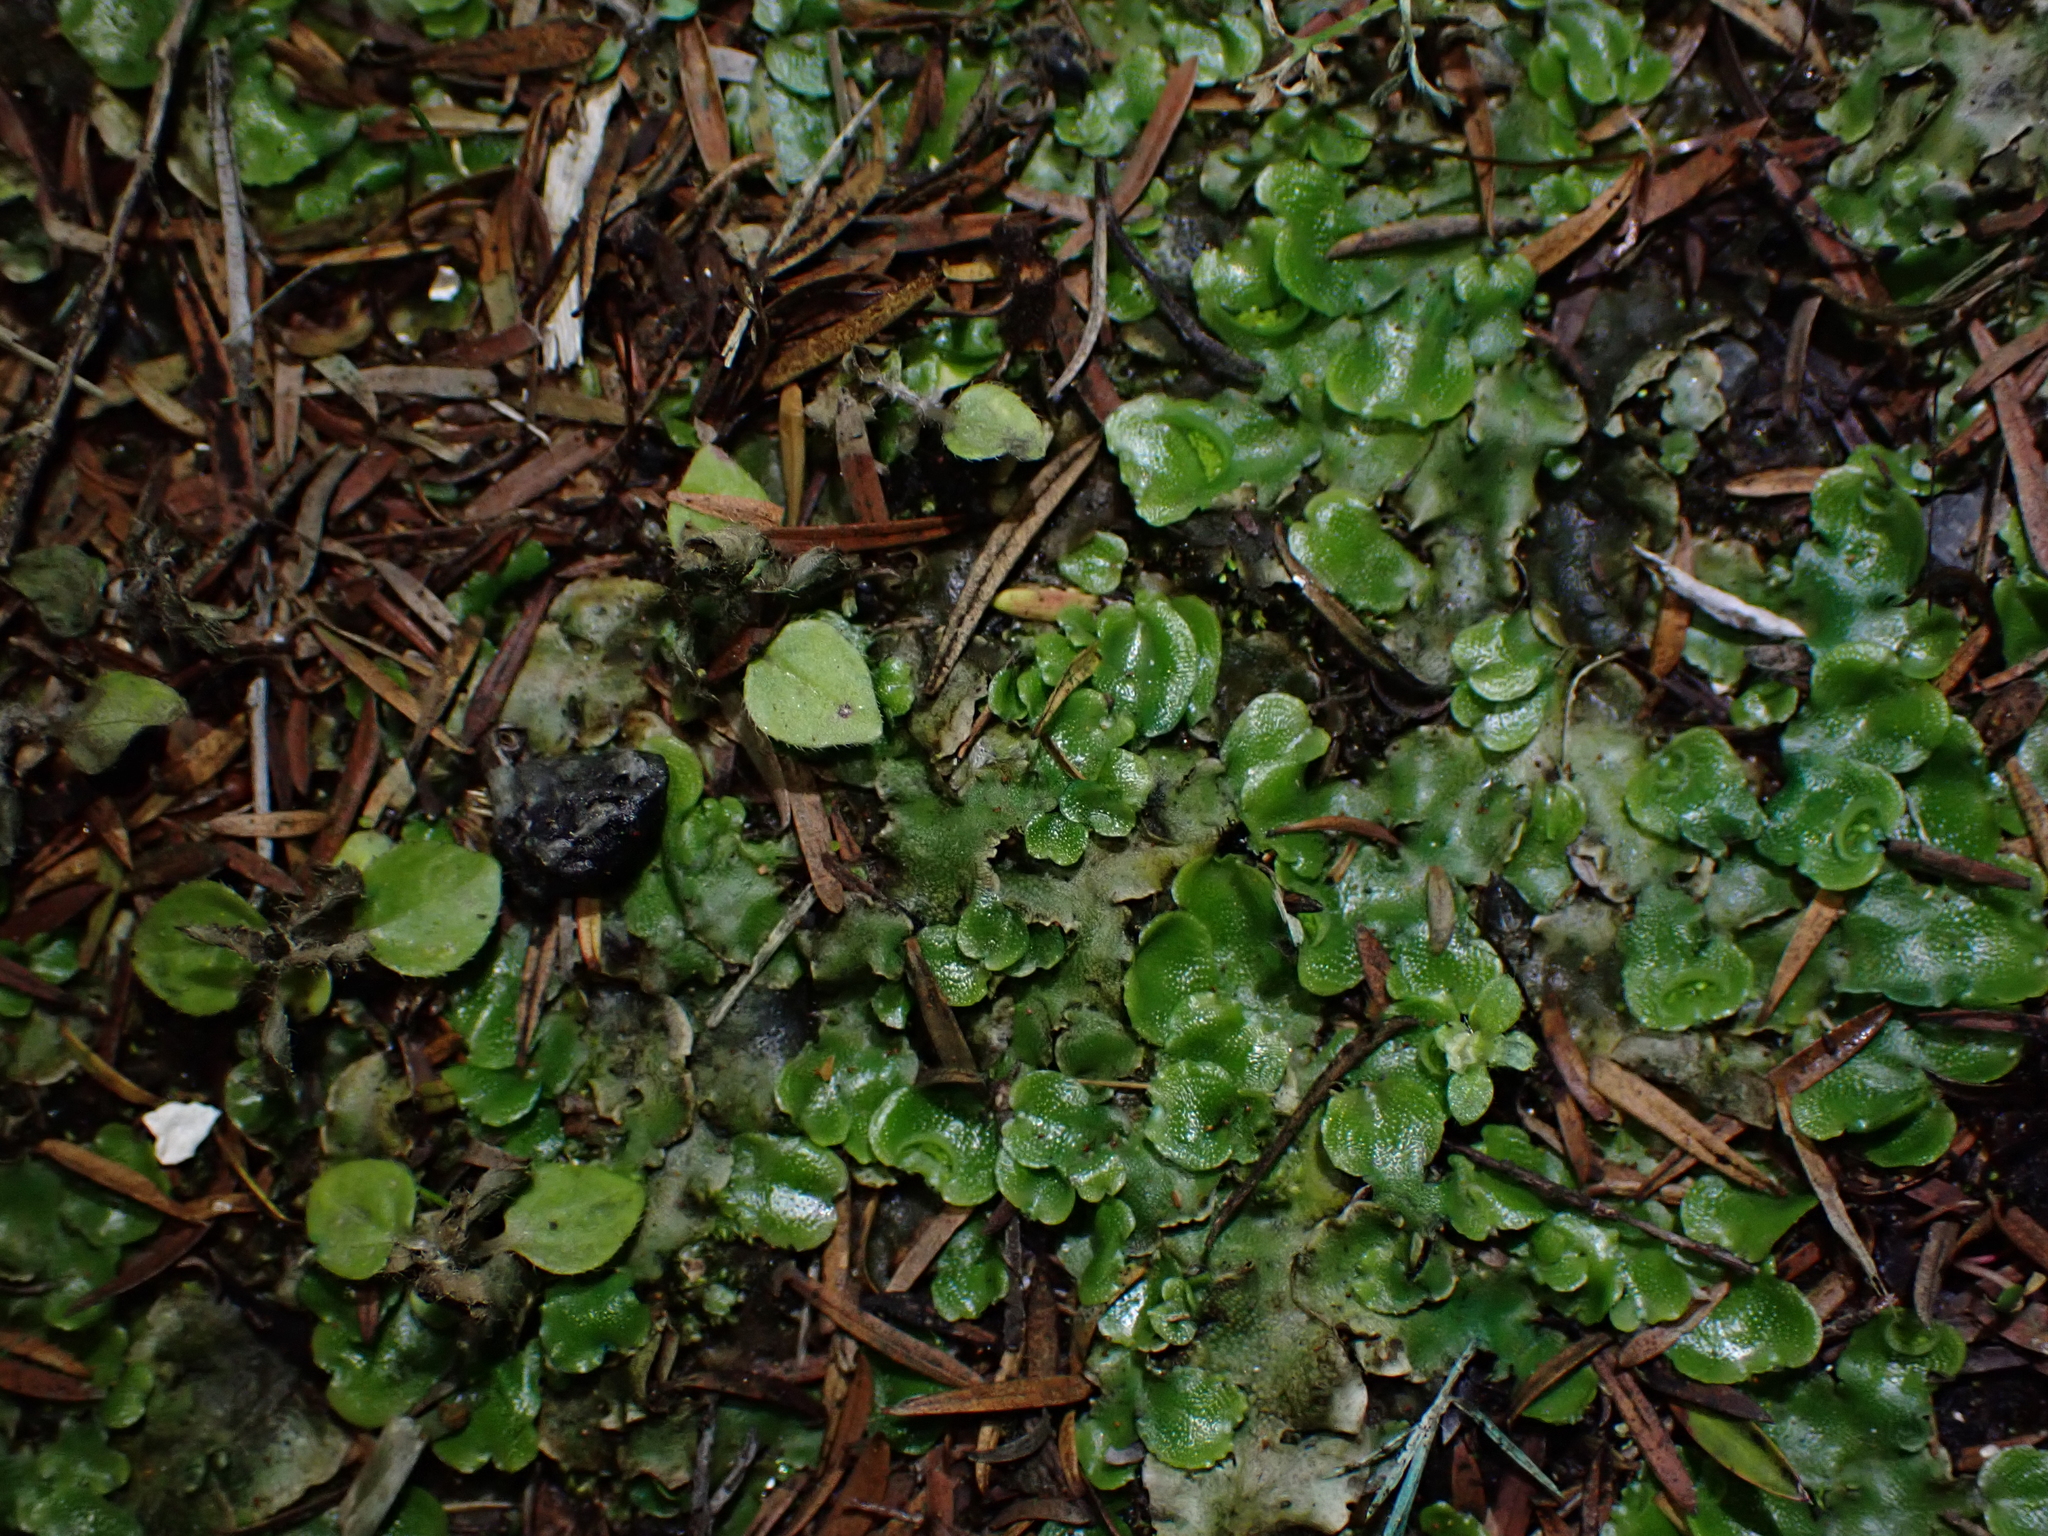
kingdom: Plantae
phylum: Marchantiophyta
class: Marchantiopsida
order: Lunulariales
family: Lunulariaceae
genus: Lunularia
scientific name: Lunularia cruciata
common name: Crescent-cup liverwort
